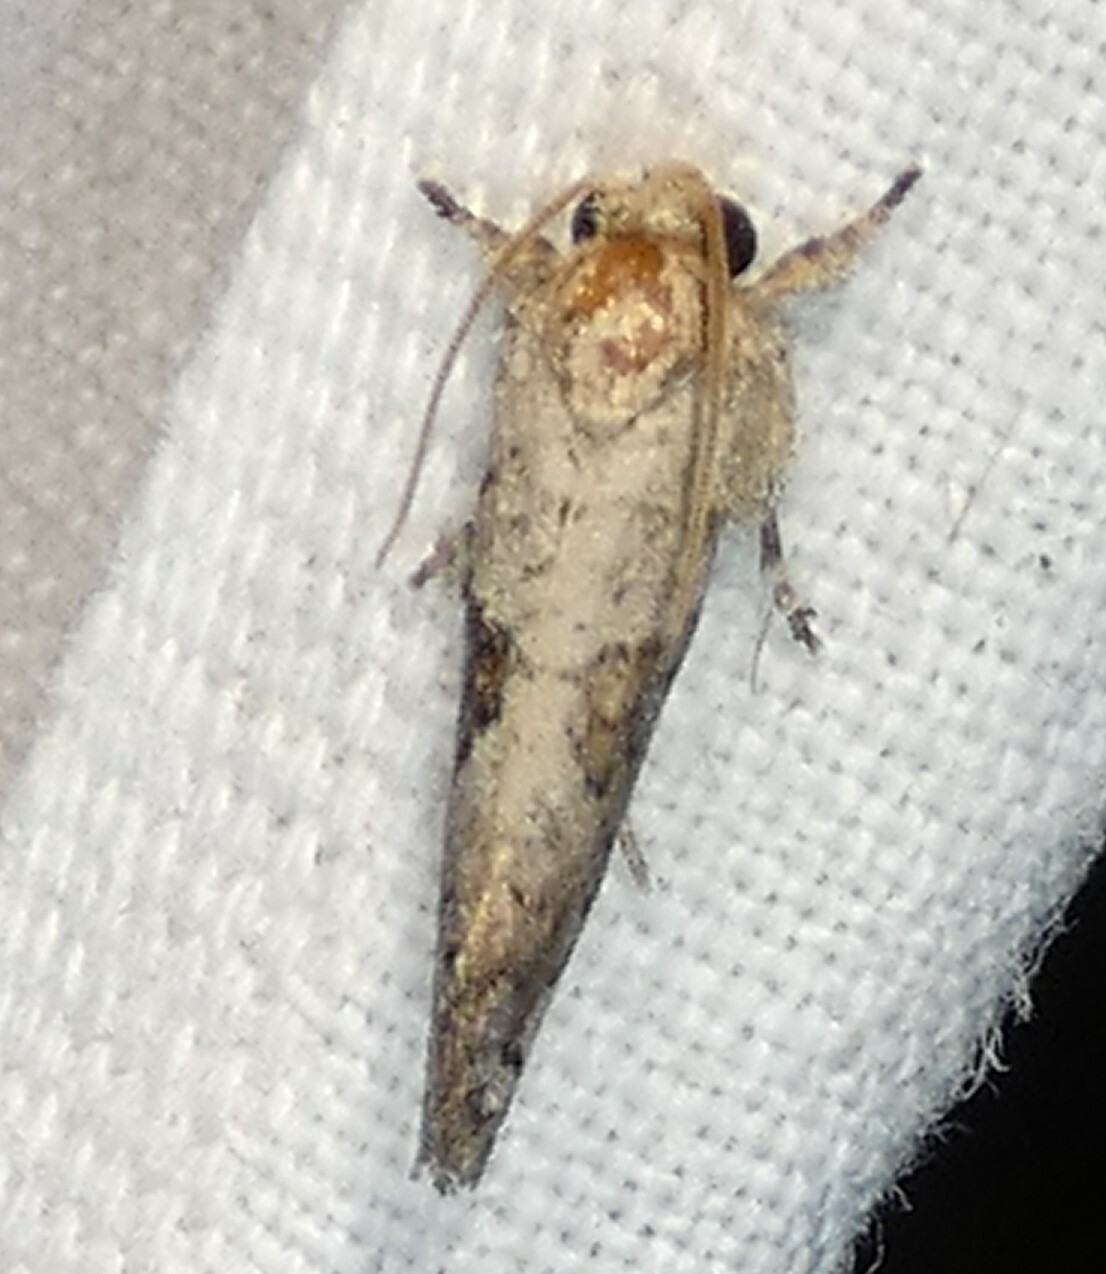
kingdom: Animalia
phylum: Arthropoda
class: Insecta
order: Lepidoptera
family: Tineidae
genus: Acrolophus
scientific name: Acrolophus piger
